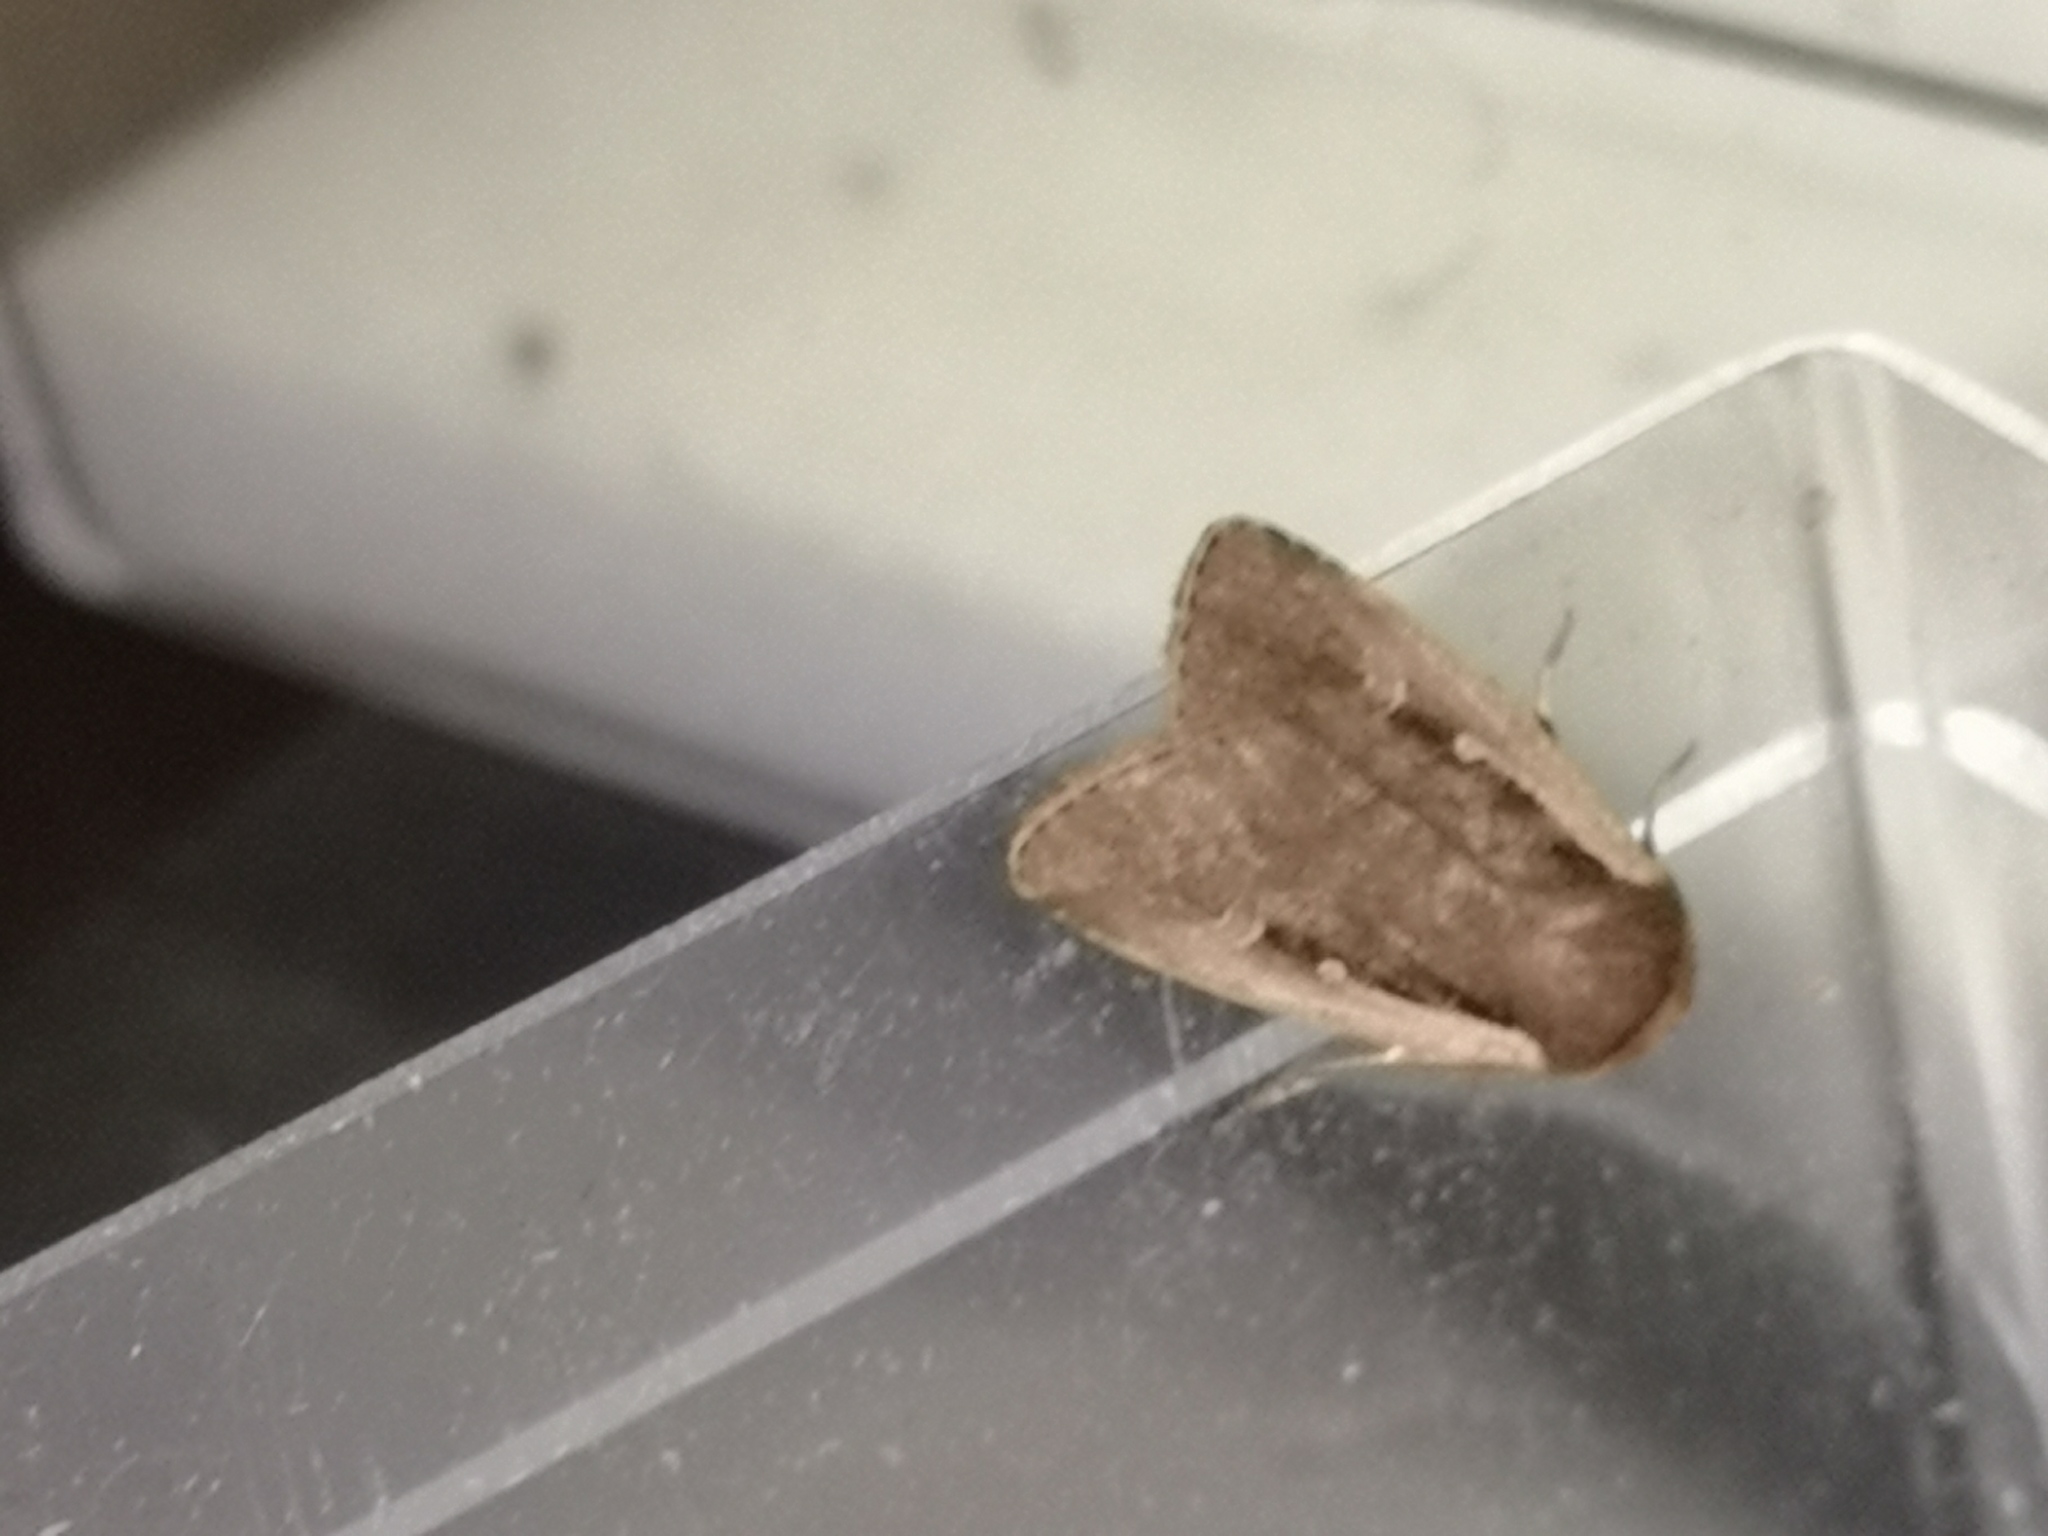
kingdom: Animalia
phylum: Arthropoda
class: Insecta
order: Lepidoptera
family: Noctuidae
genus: Ochropleura
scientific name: Ochropleura plecta
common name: Flame shoulder
